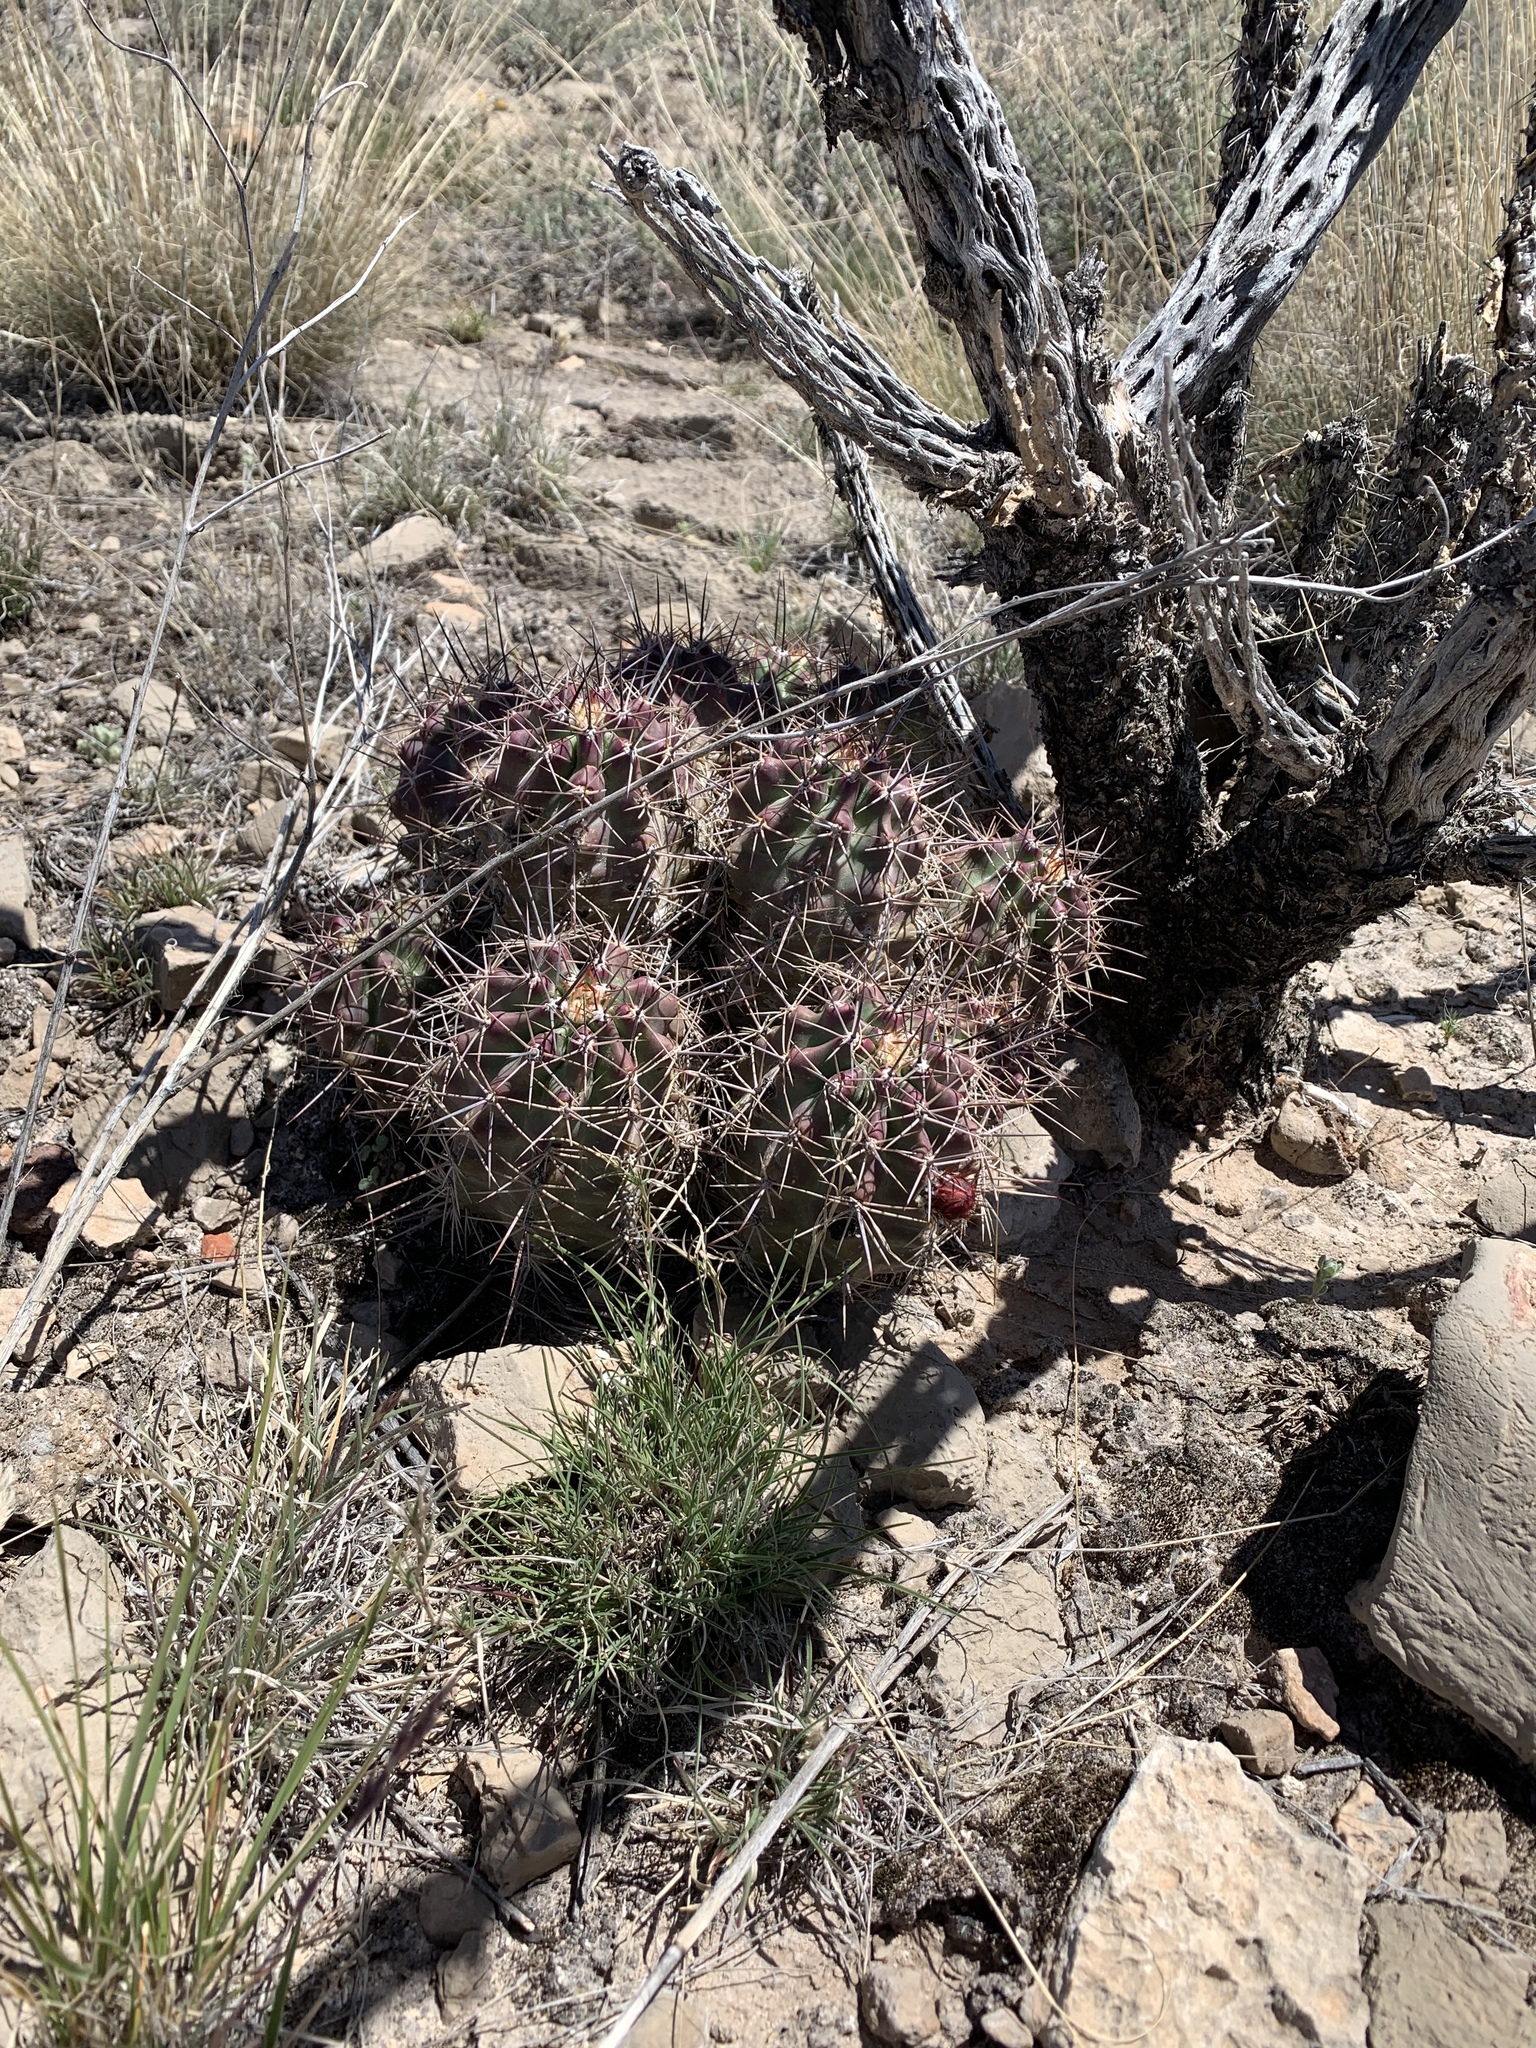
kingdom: Plantae
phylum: Tracheophyta
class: Magnoliopsida
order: Caryophyllales
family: Cactaceae
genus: Echinocereus
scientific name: Echinocereus coccineus
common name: Scarlet hedgehog cactus
